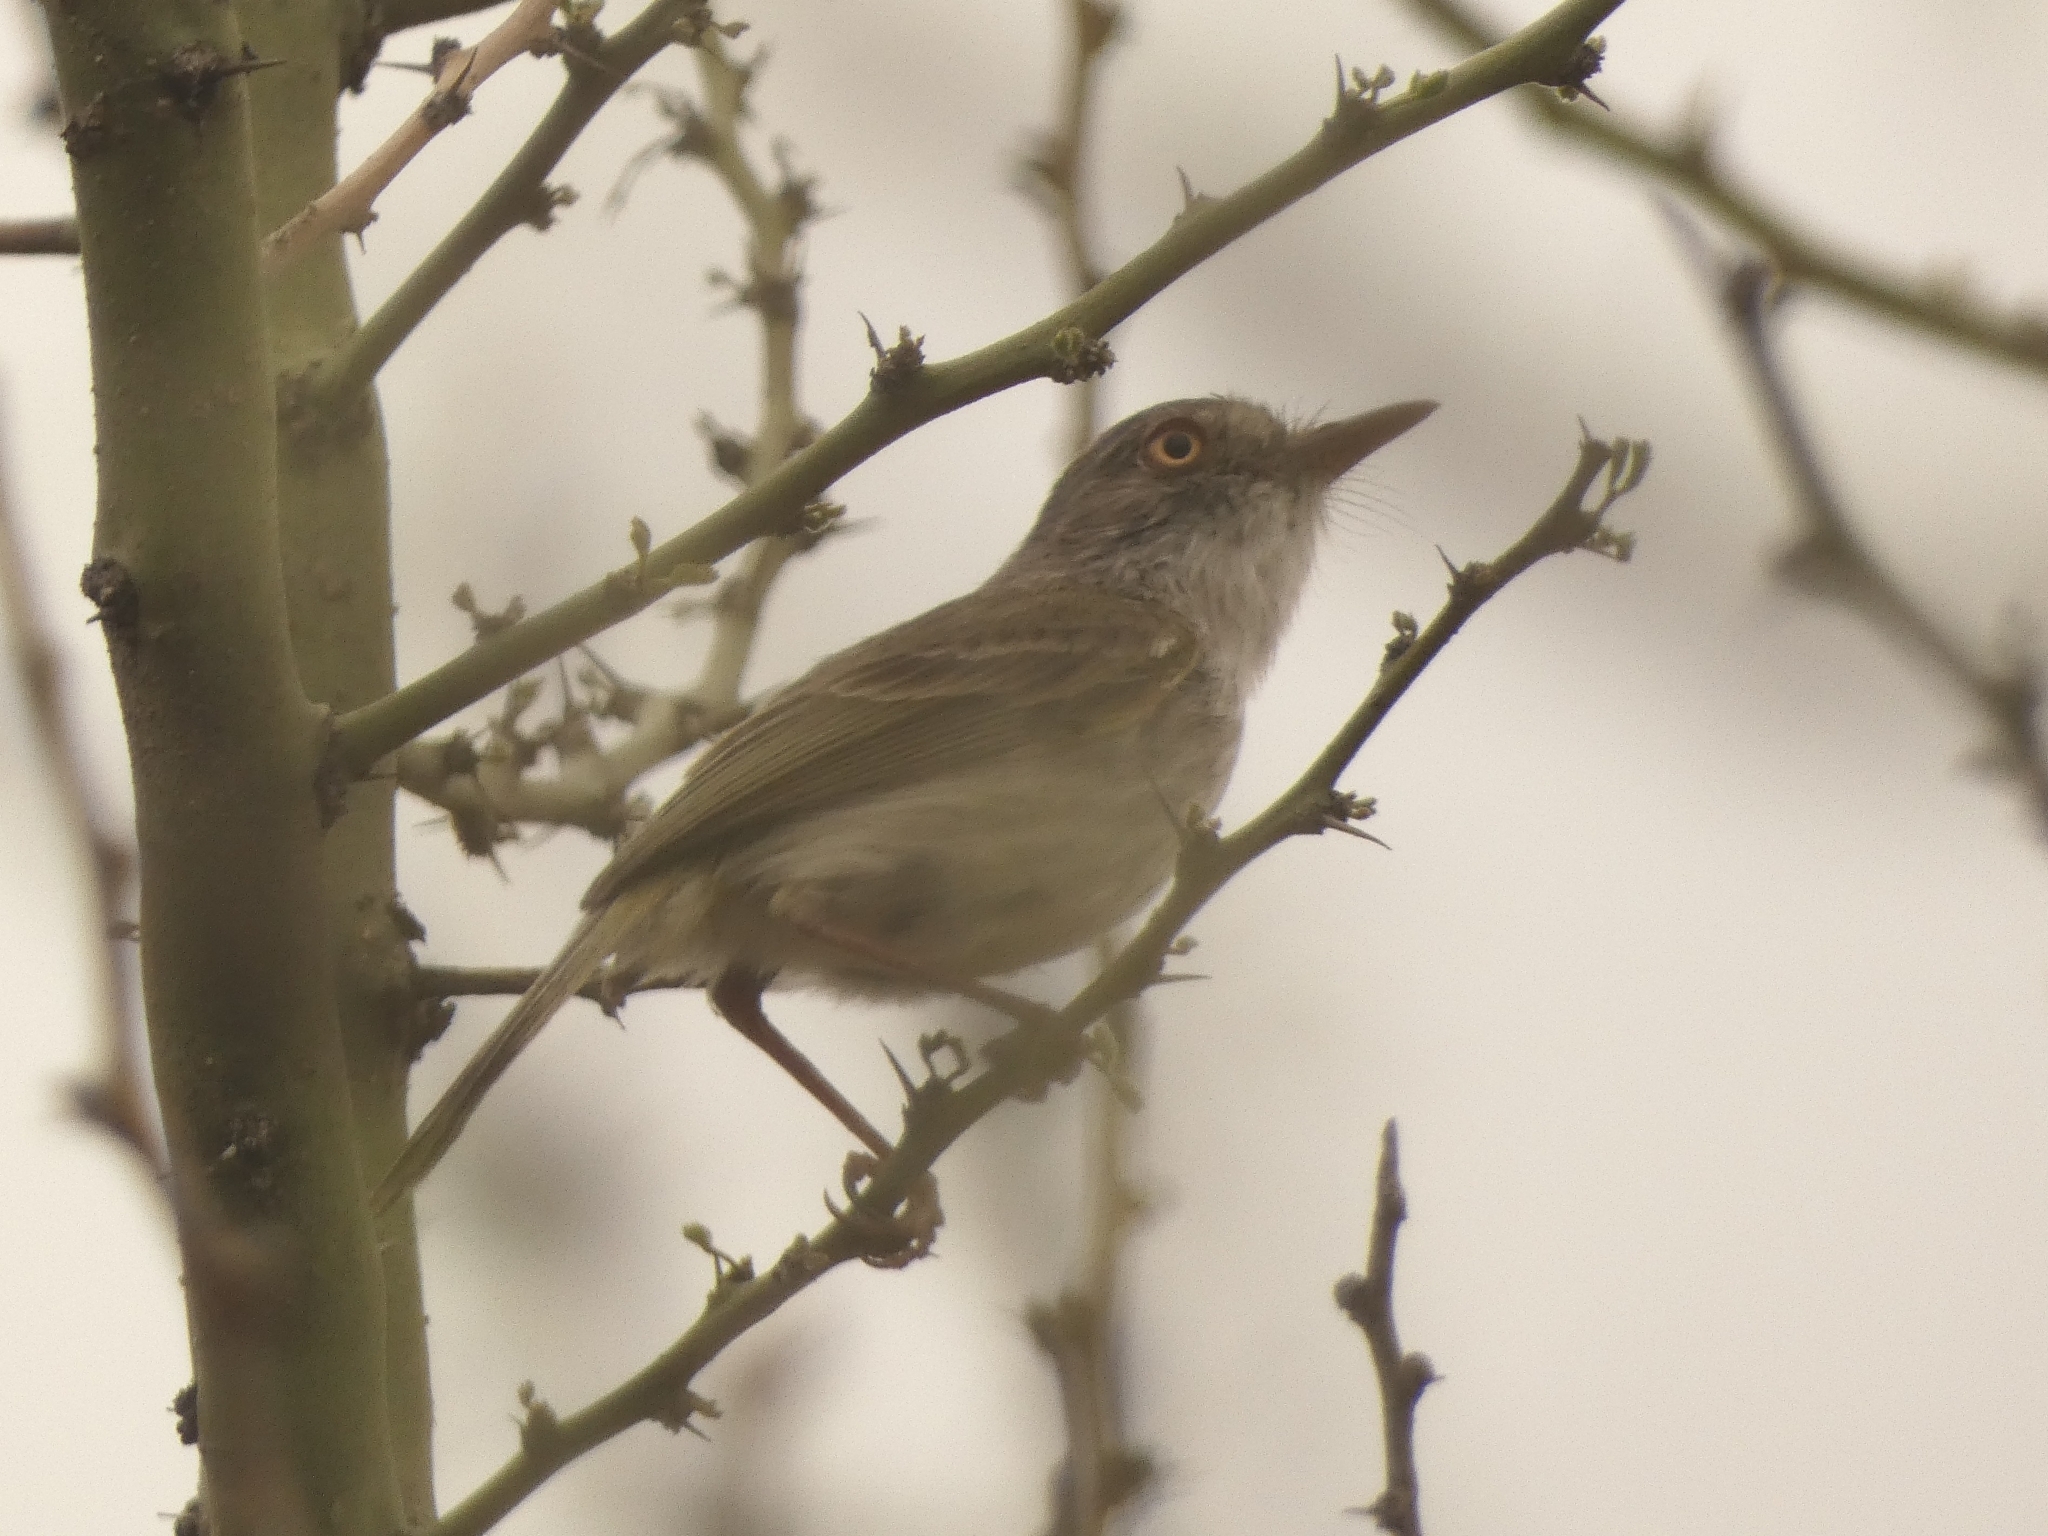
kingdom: Animalia
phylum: Chordata
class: Aves
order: Passeriformes
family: Tyrannidae
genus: Hemitriccus
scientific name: Hemitriccus margaritaceiventer
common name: Pearly-vented tody-tyrant
